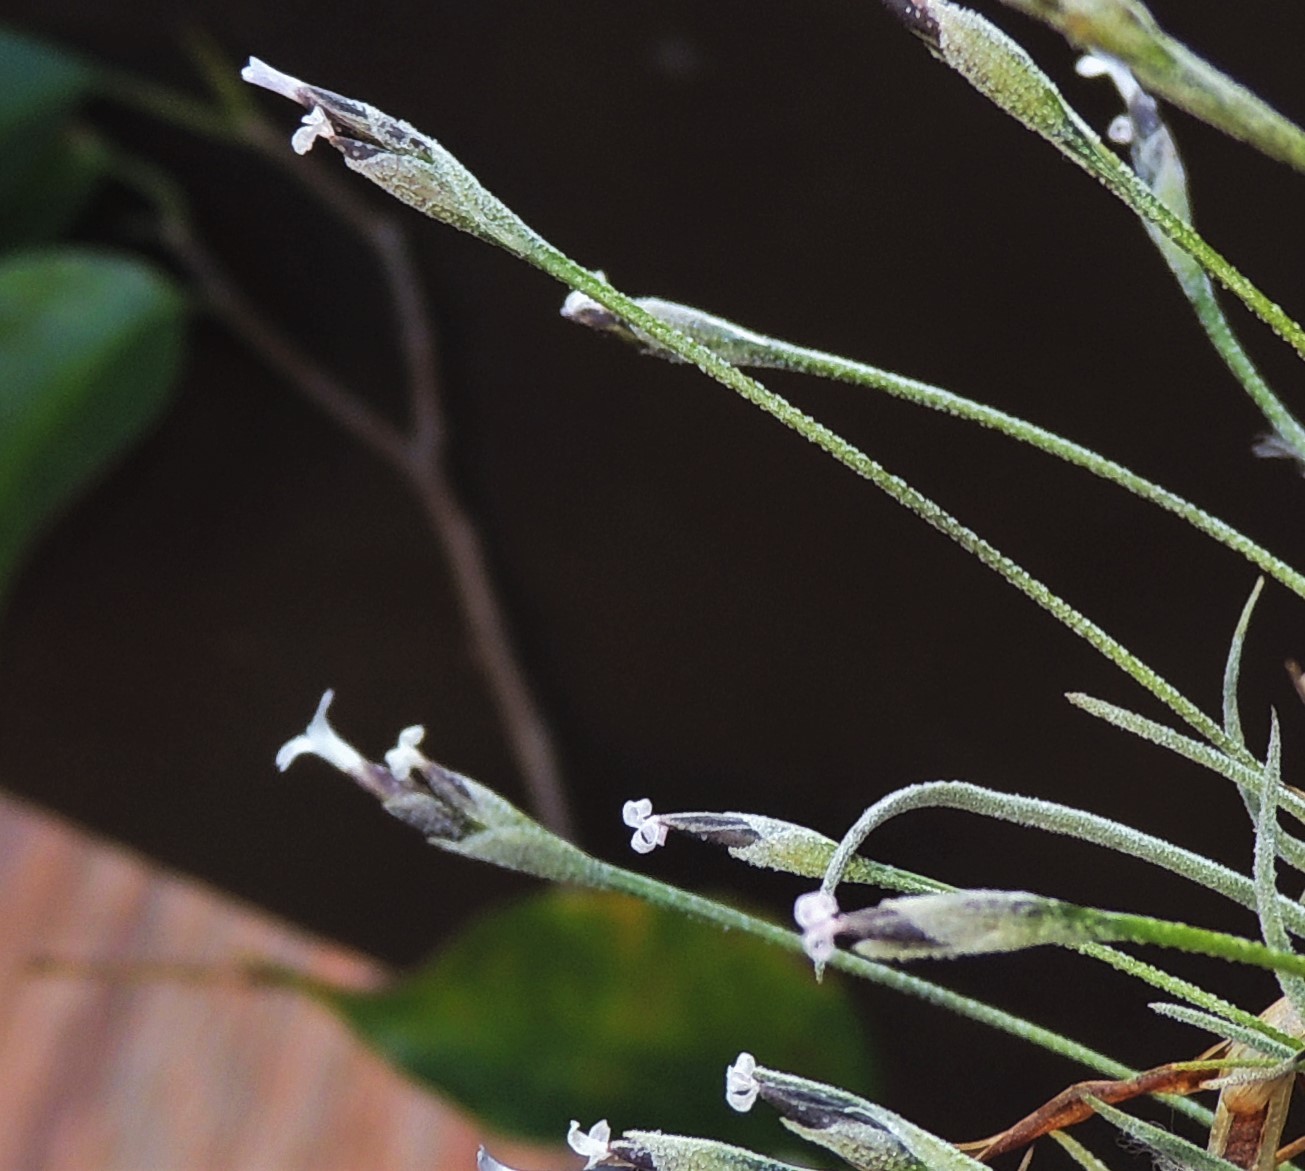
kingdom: Plantae
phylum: Tracheophyta
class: Liliopsida
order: Poales
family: Bromeliaceae
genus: Tillandsia
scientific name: Tillandsia recurvata
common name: Small ballmoss
